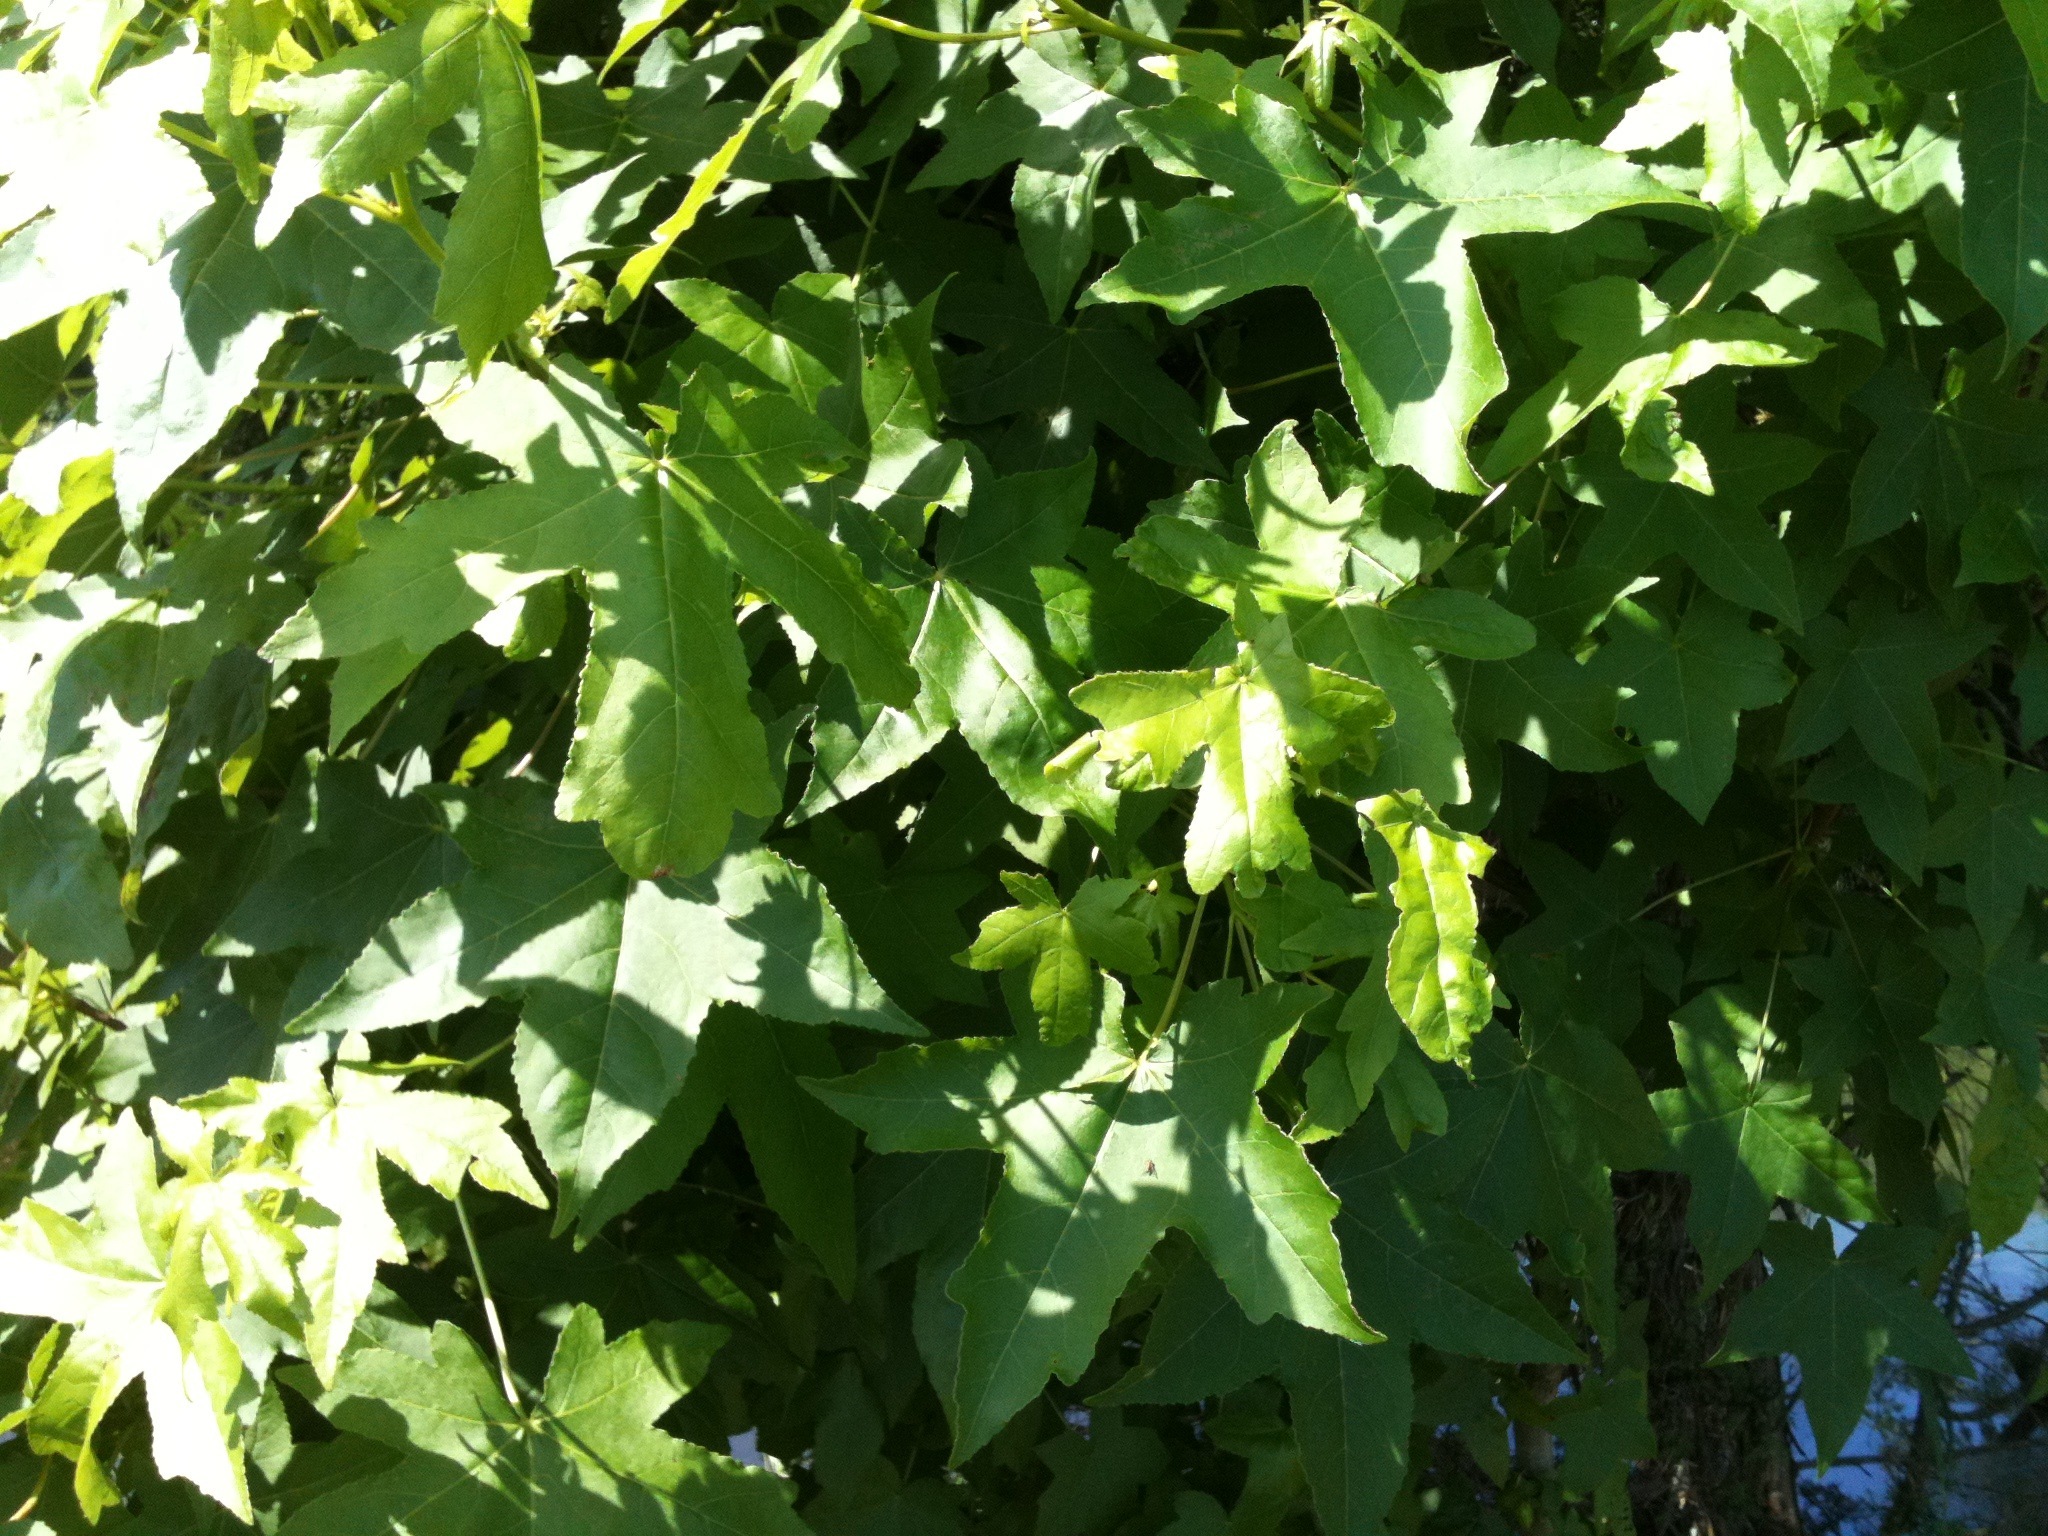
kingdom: Plantae
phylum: Tracheophyta
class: Magnoliopsida
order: Saxifragales
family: Altingiaceae
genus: Liquidambar
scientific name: Liquidambar styraciflua
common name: Sweet gum
